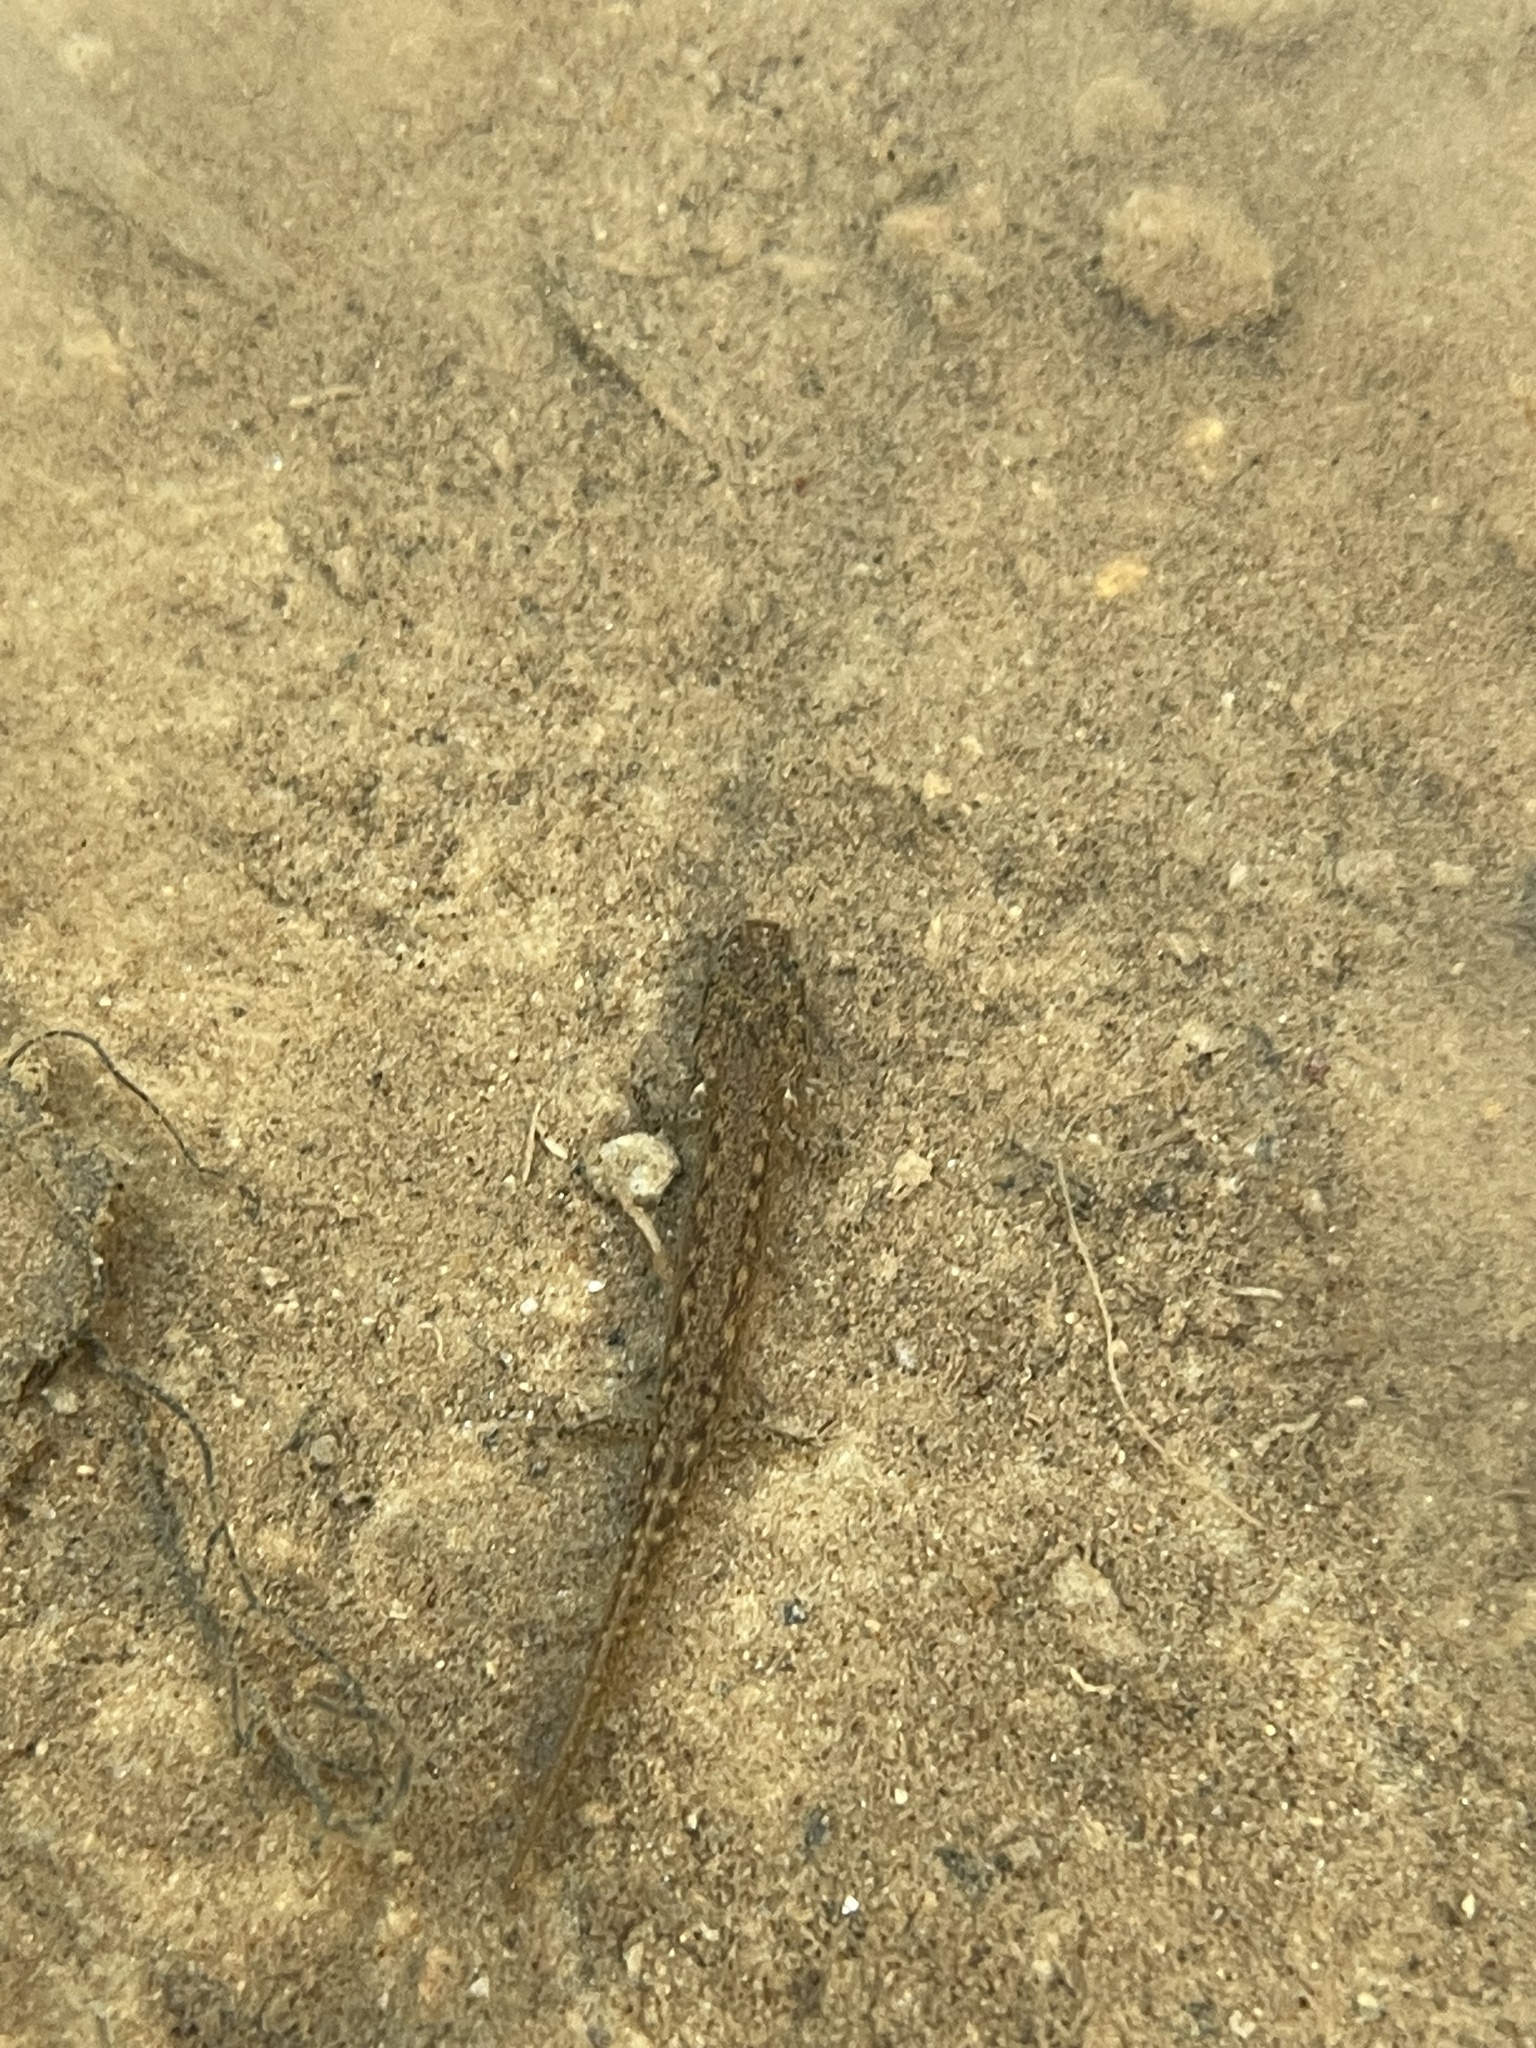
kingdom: Animalia
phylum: Chordata
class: Amphibia
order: Caudata
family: Plethodontidae
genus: Eurycea
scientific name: Eurycea cirrigera
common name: Southern two-lined salamander
